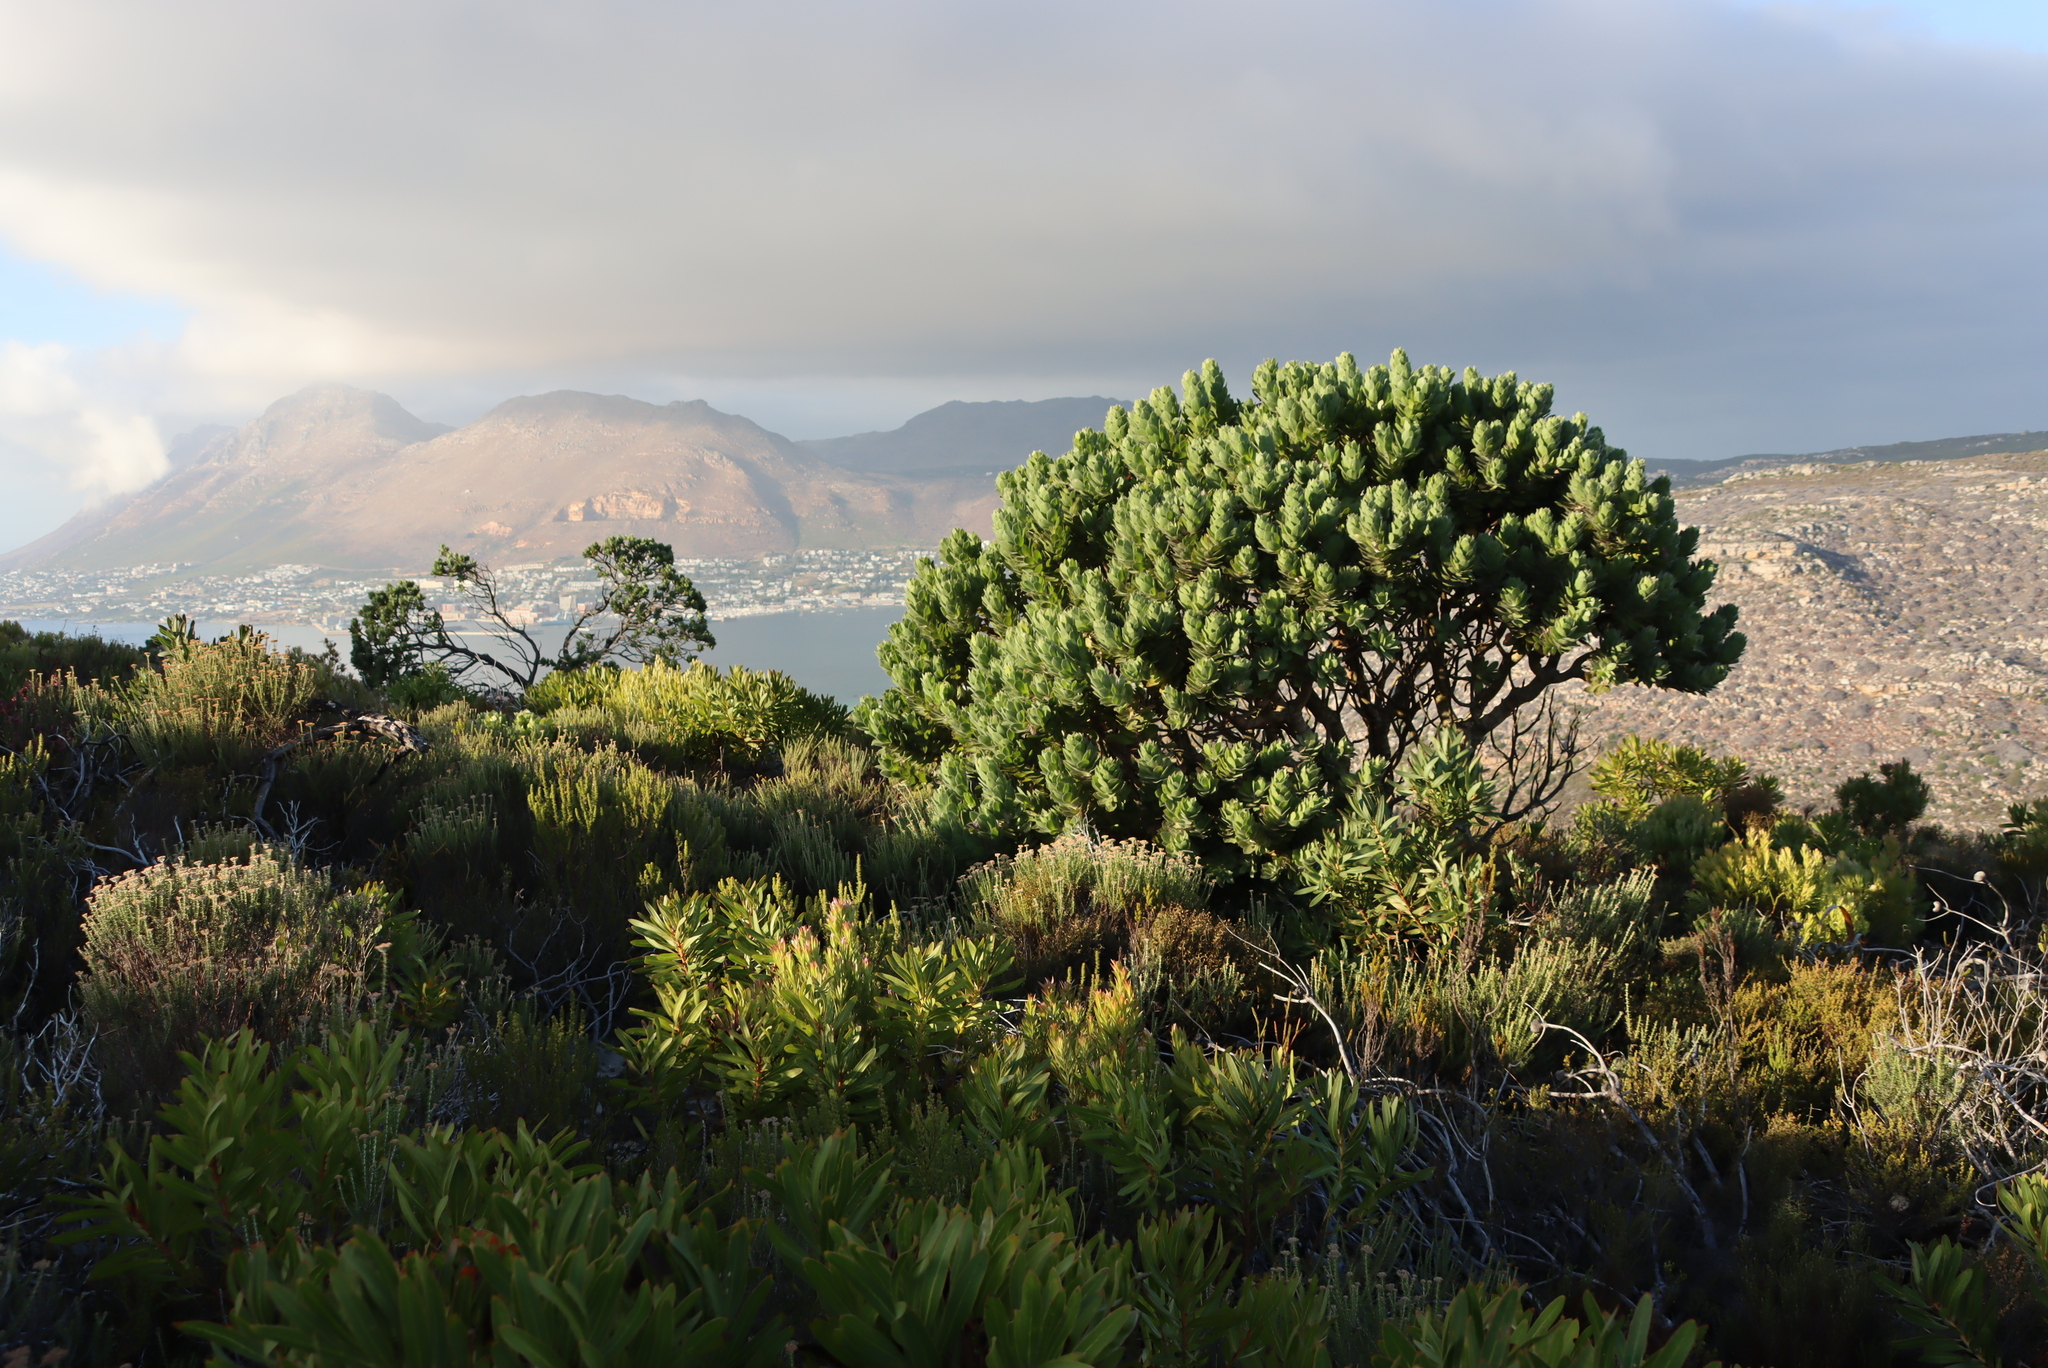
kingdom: Plantae
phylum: Tracheophyta
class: Magnoliopsida
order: Proteales
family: Proteaceae
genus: Leucospermum
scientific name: Leucospermum conocarpodendron
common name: Tree pincushion
